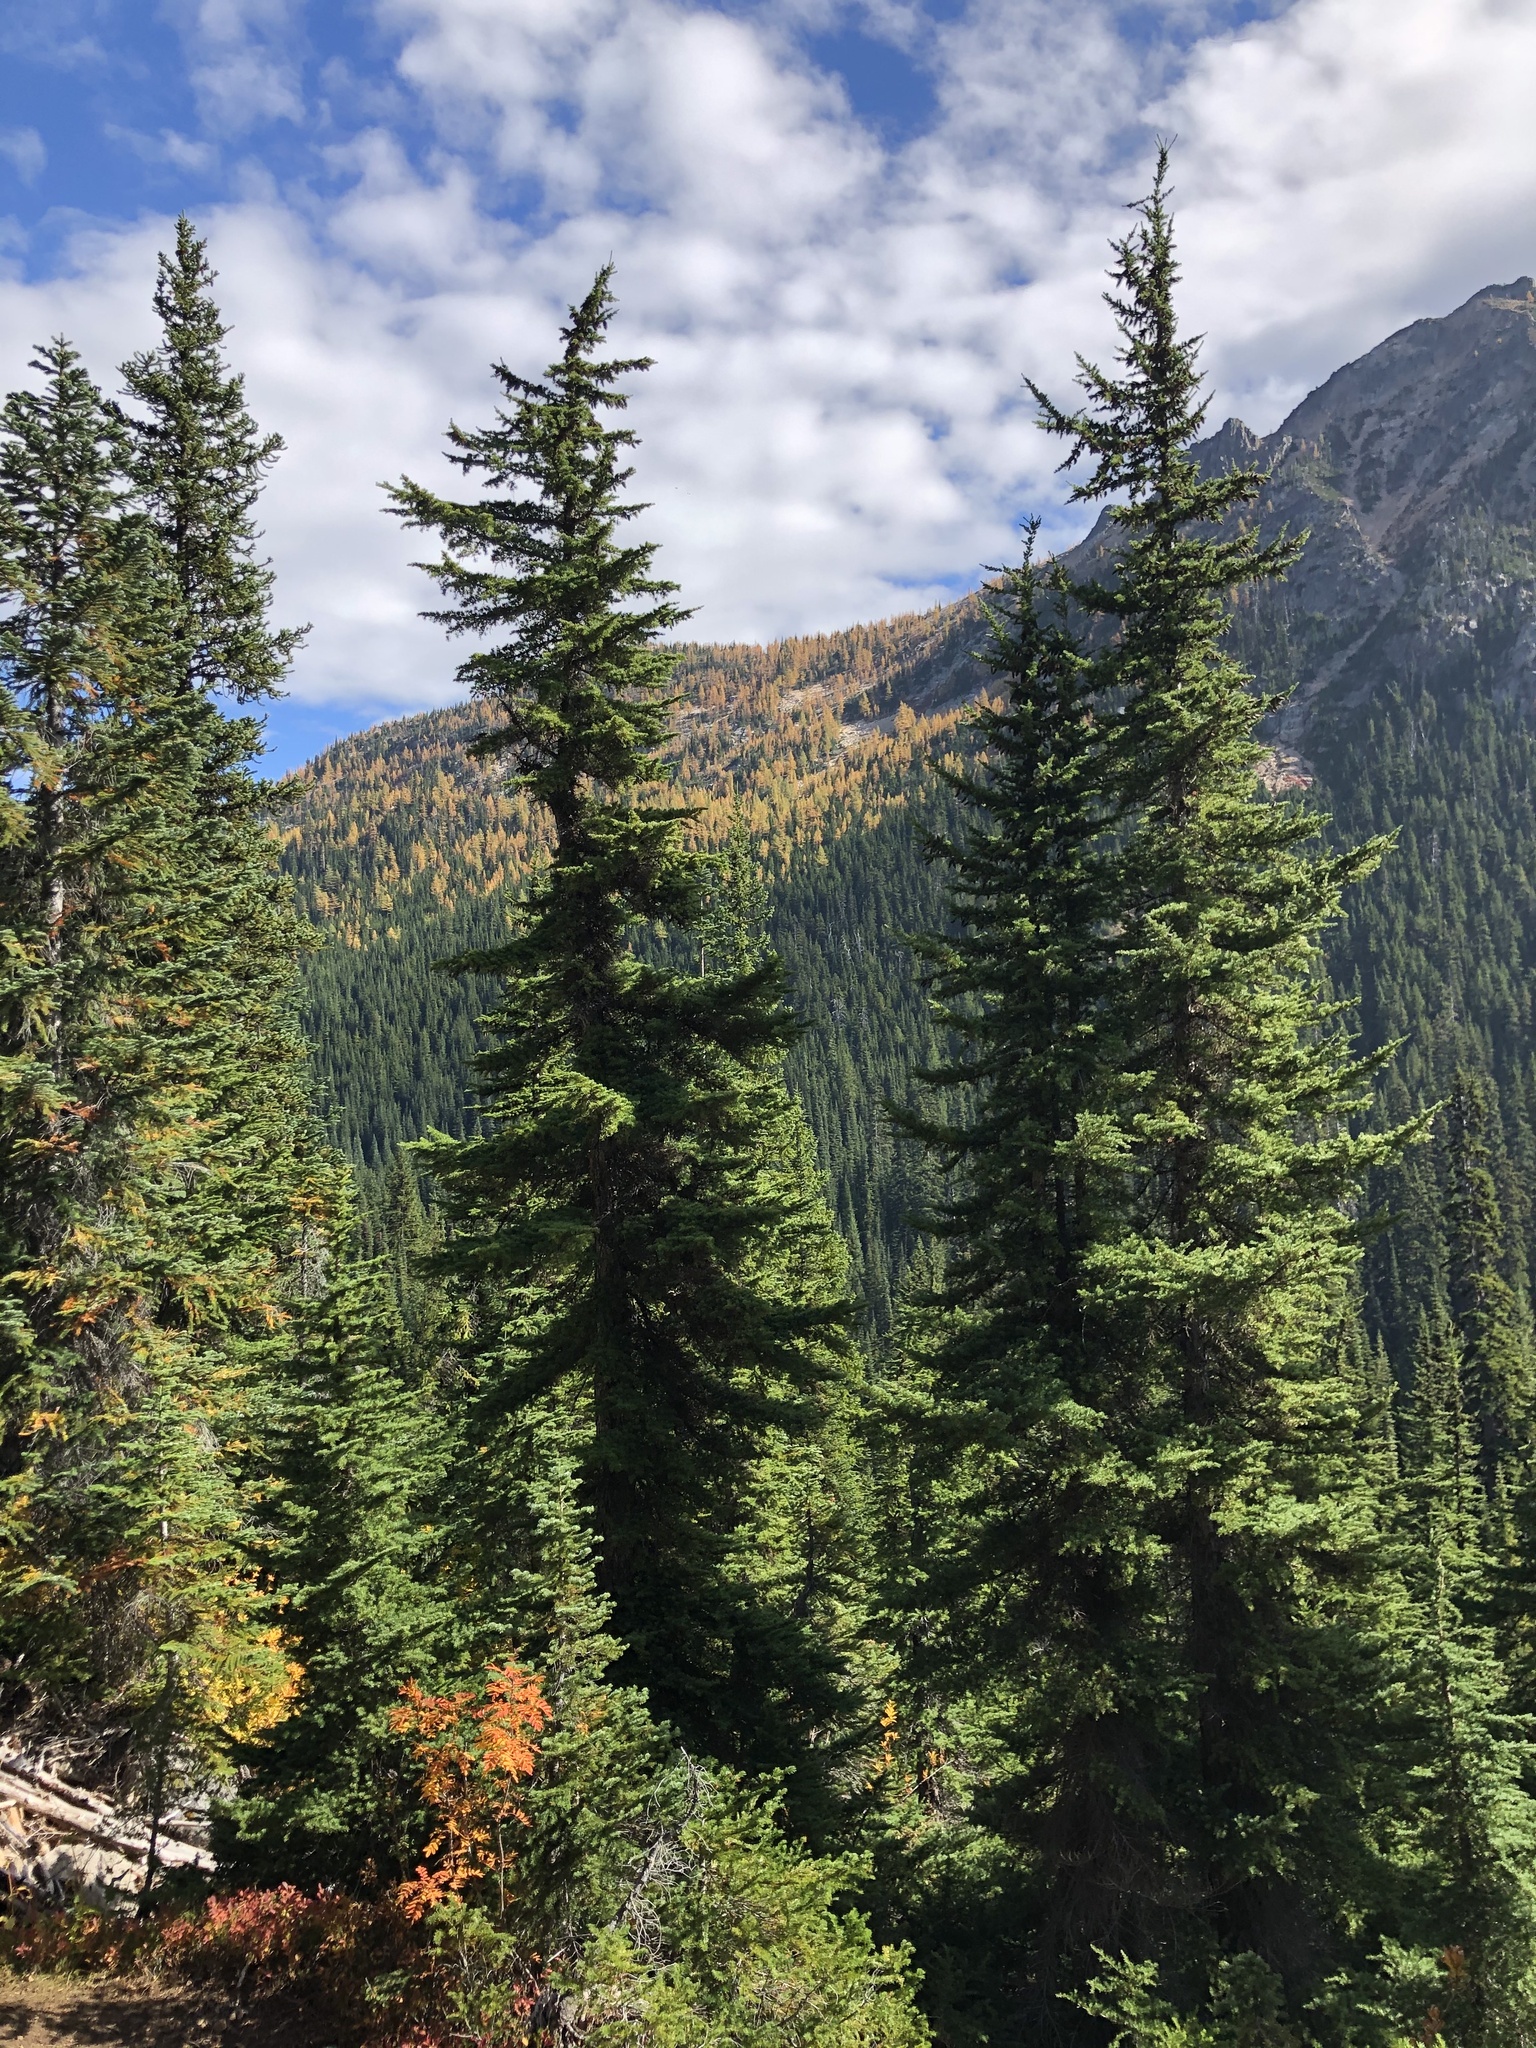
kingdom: Plantae
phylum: Tracheophyta
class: Pinopsida
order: Pinales
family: Pinaceae
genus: Tsuga
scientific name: Tsuga mertensiana
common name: Mountain hemlock
